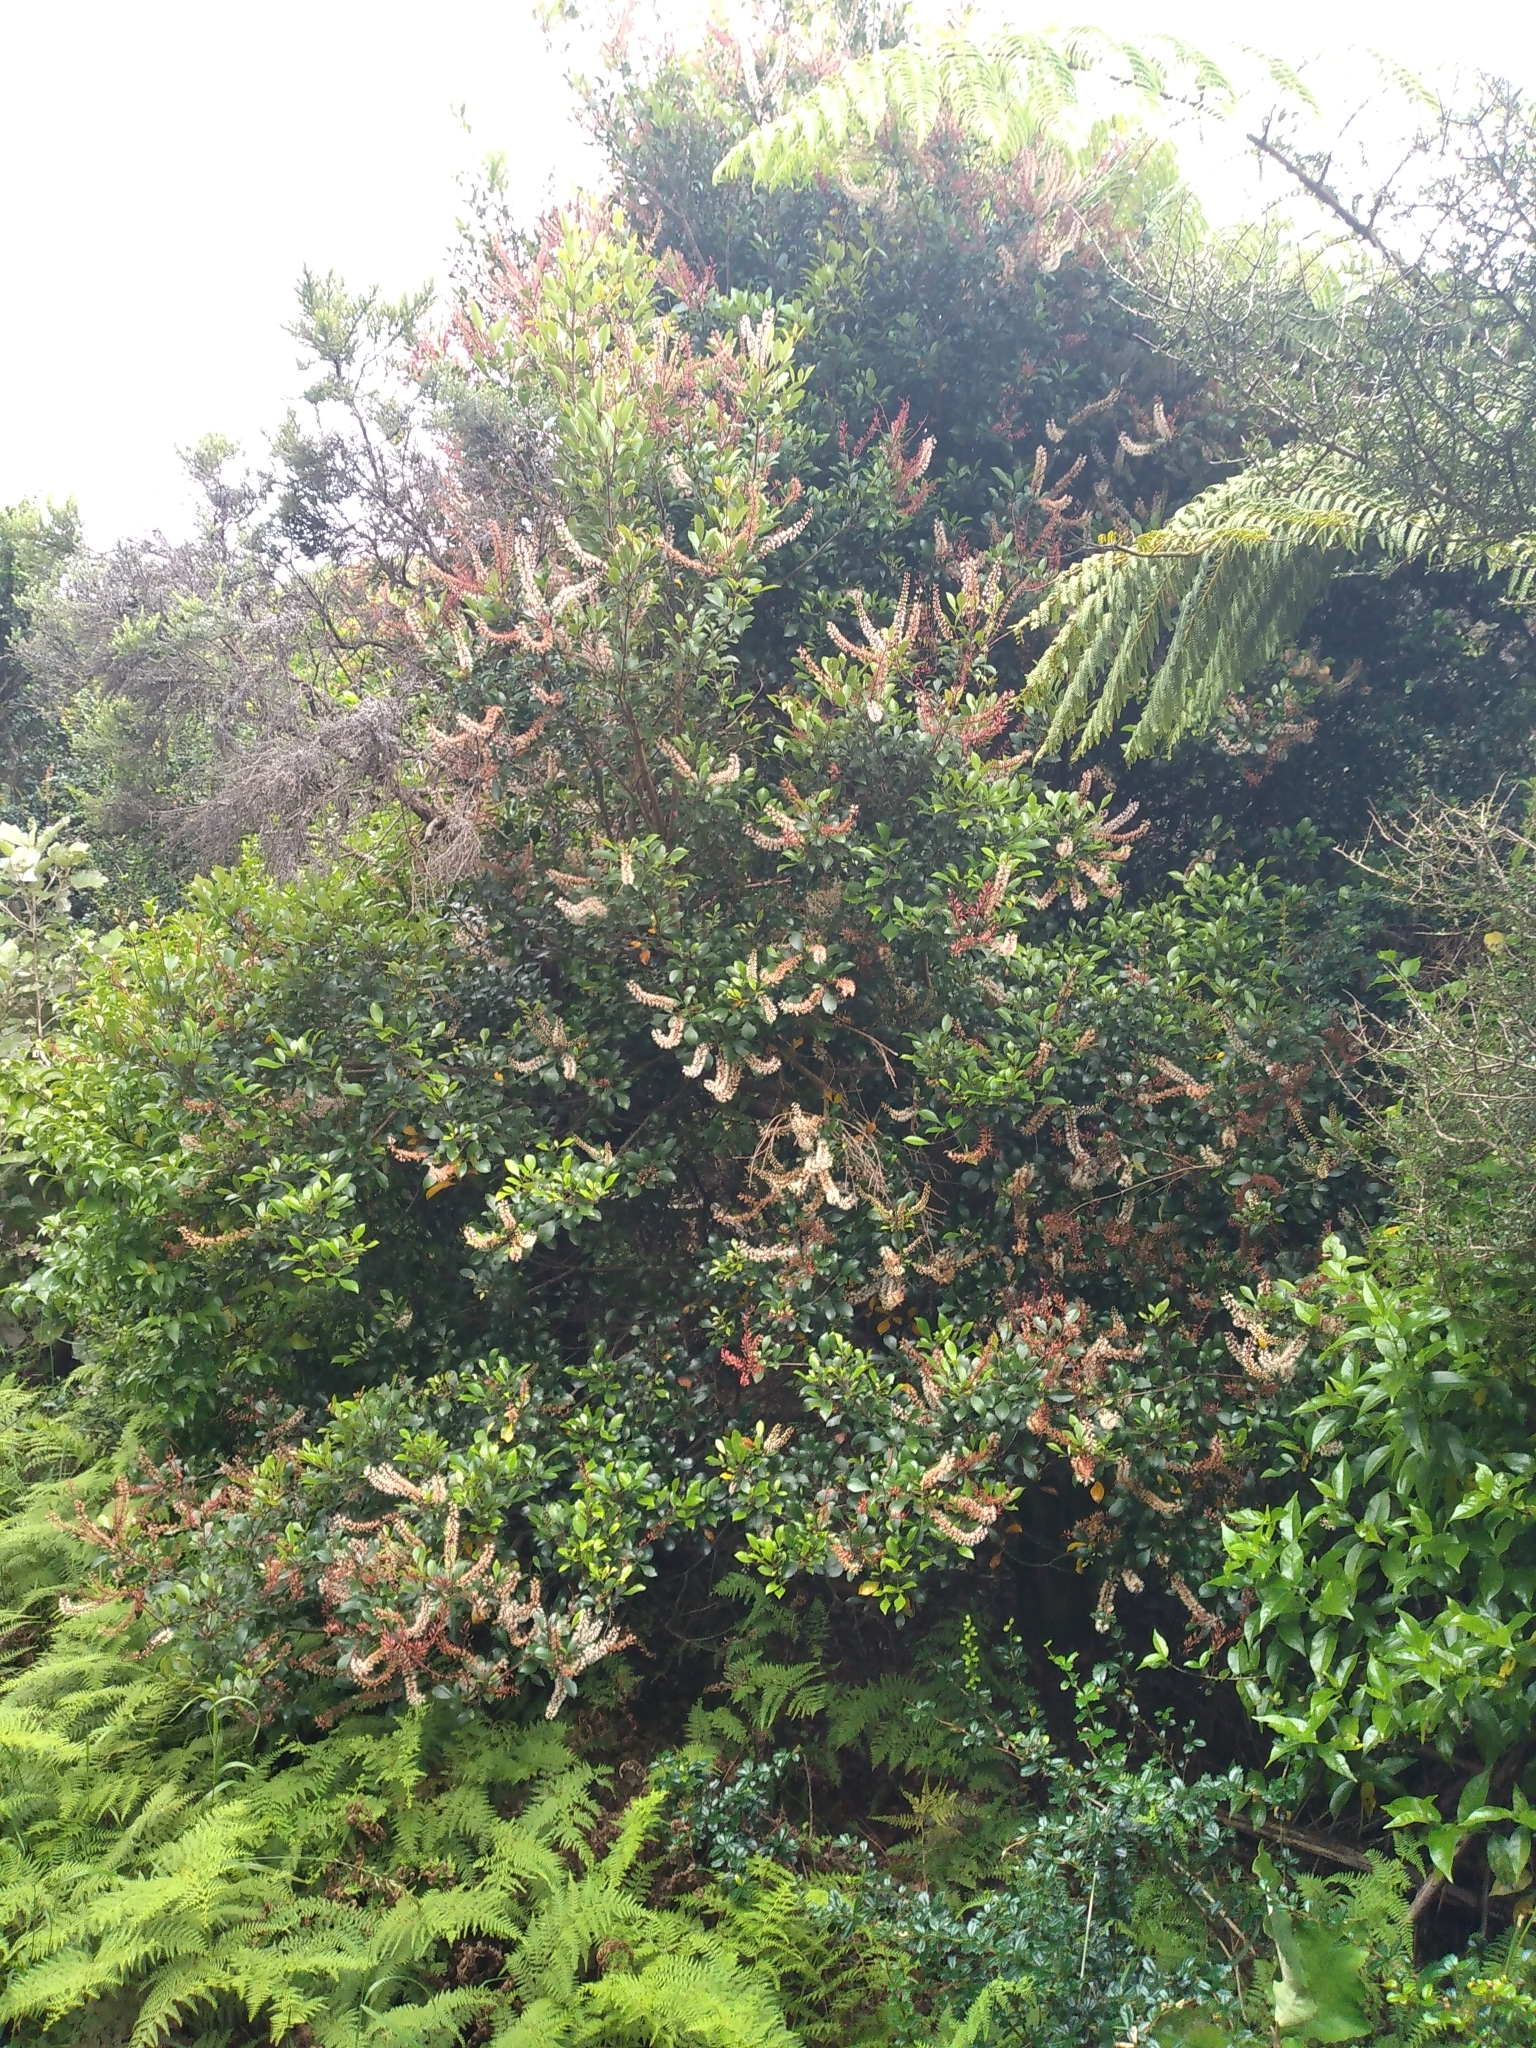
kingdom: Plantae
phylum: Tracheophyta
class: Magnoliopsida
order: Oxalidales
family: Cunoniaceae
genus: Pterophylla
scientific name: Pterophylla racemosa
